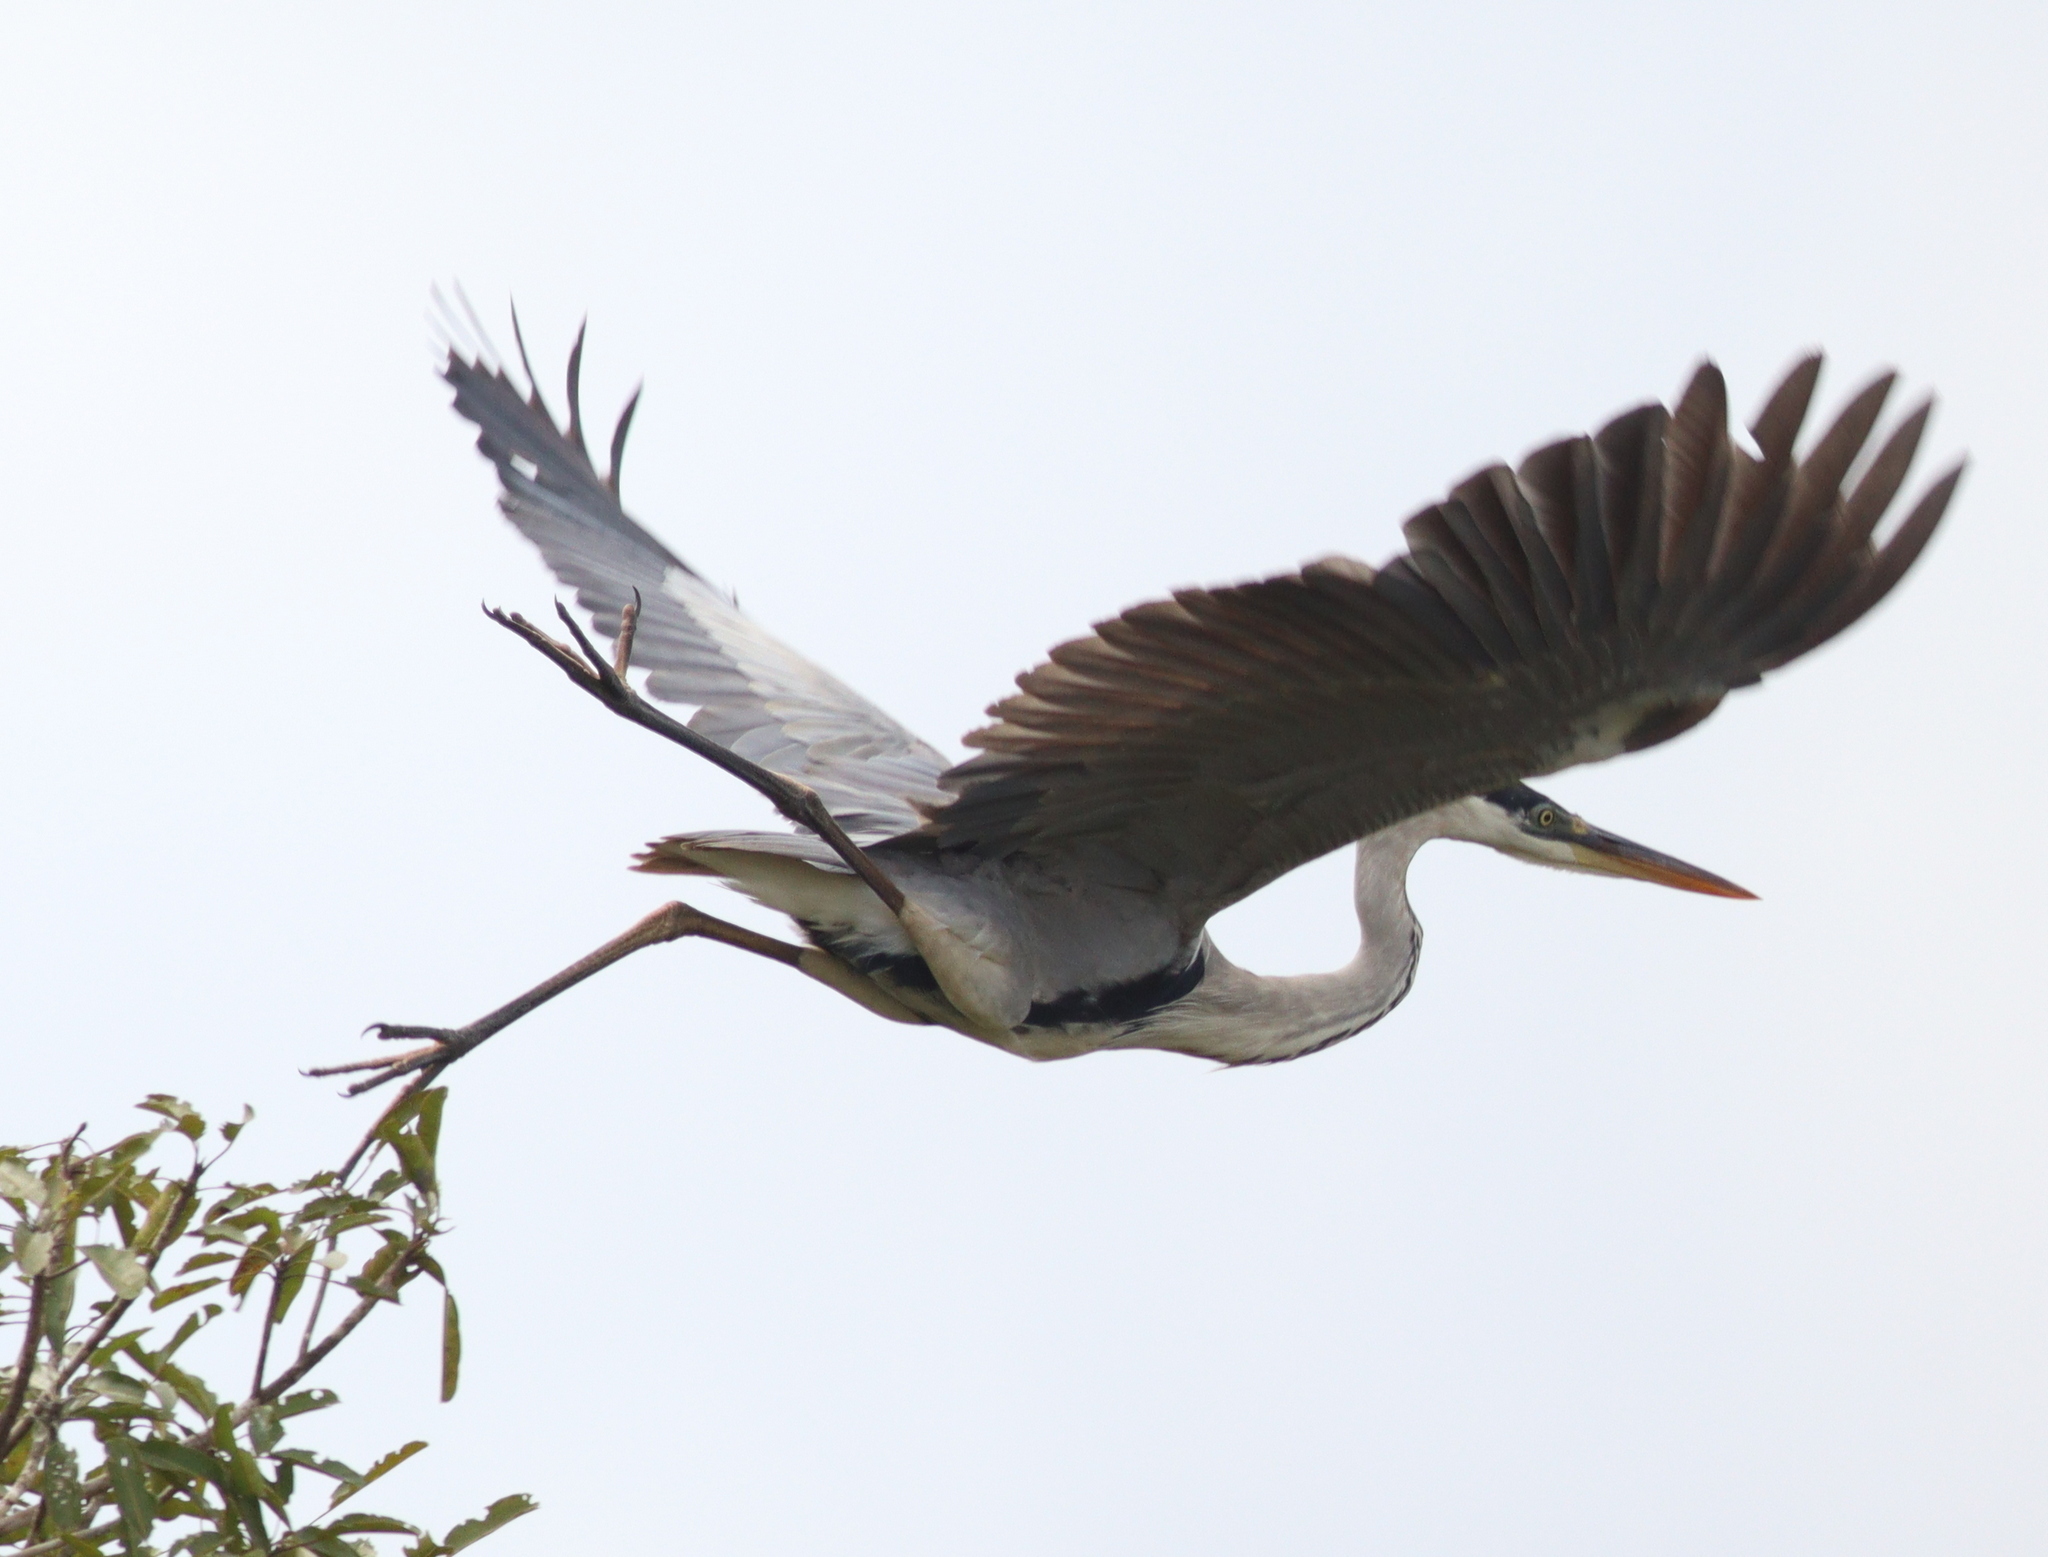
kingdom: Animalia
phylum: Chordata
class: Aves
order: Pelecaniformes
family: Ardeidae
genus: Ardea
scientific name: Ardea cocoi
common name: Cocoi heron
